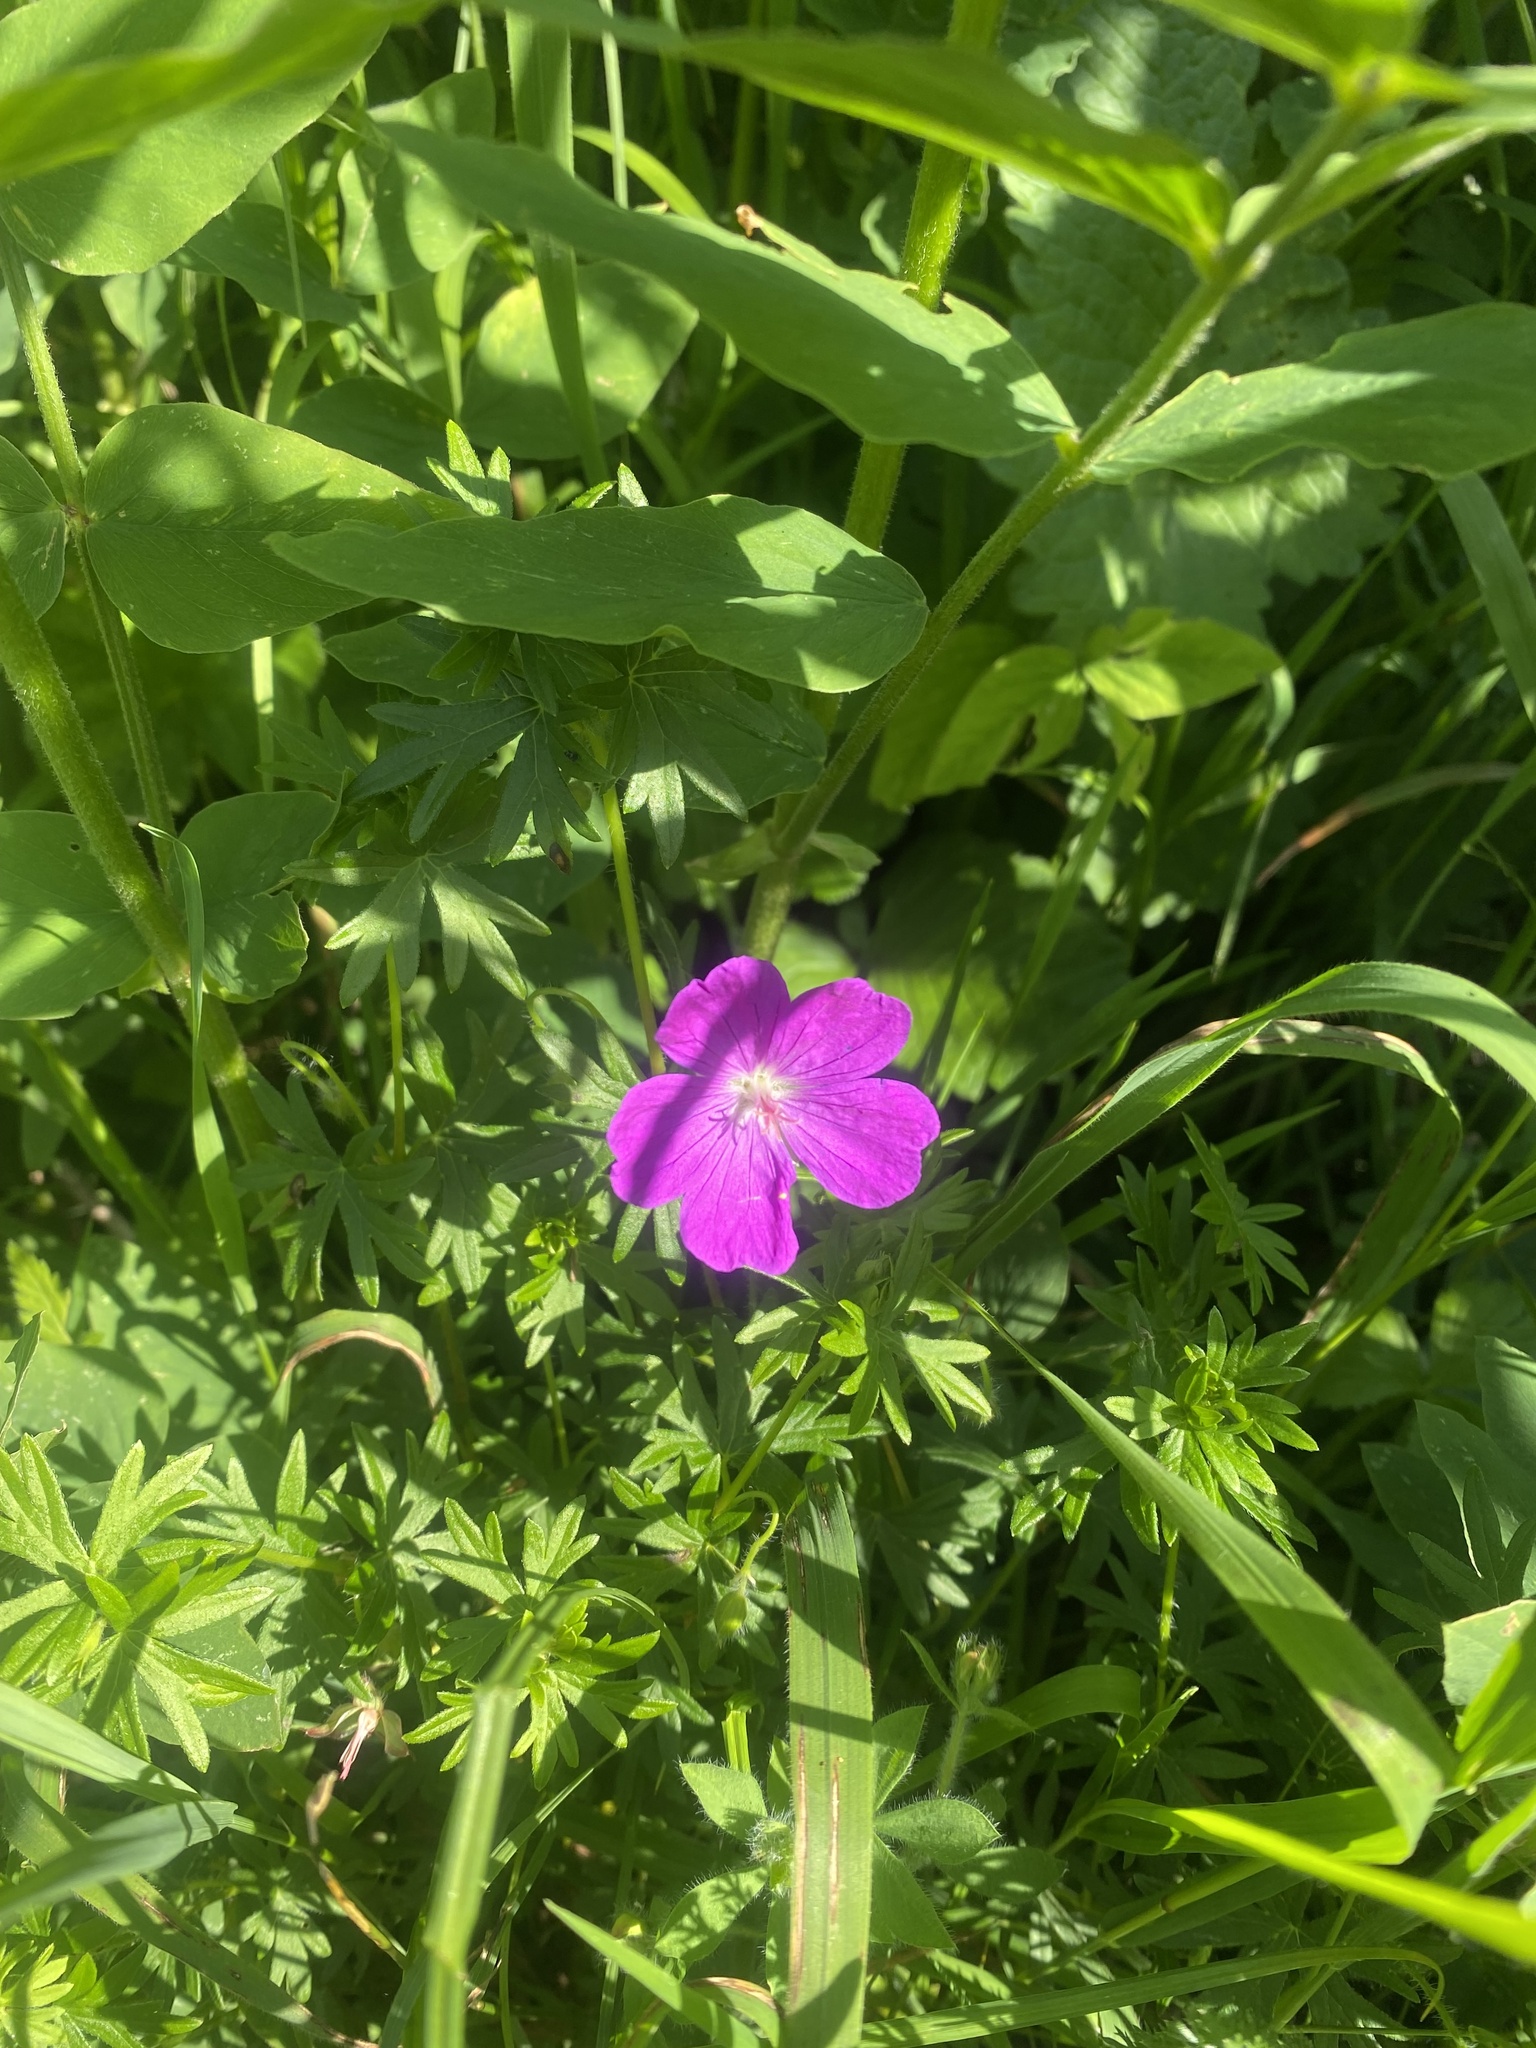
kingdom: Plantae
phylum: Tracheophyta
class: Magnoliopsida
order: Geraniales
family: Geraniaceae
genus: Geranium
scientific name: Geranium sanguineum
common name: Bloody crane's-bill
